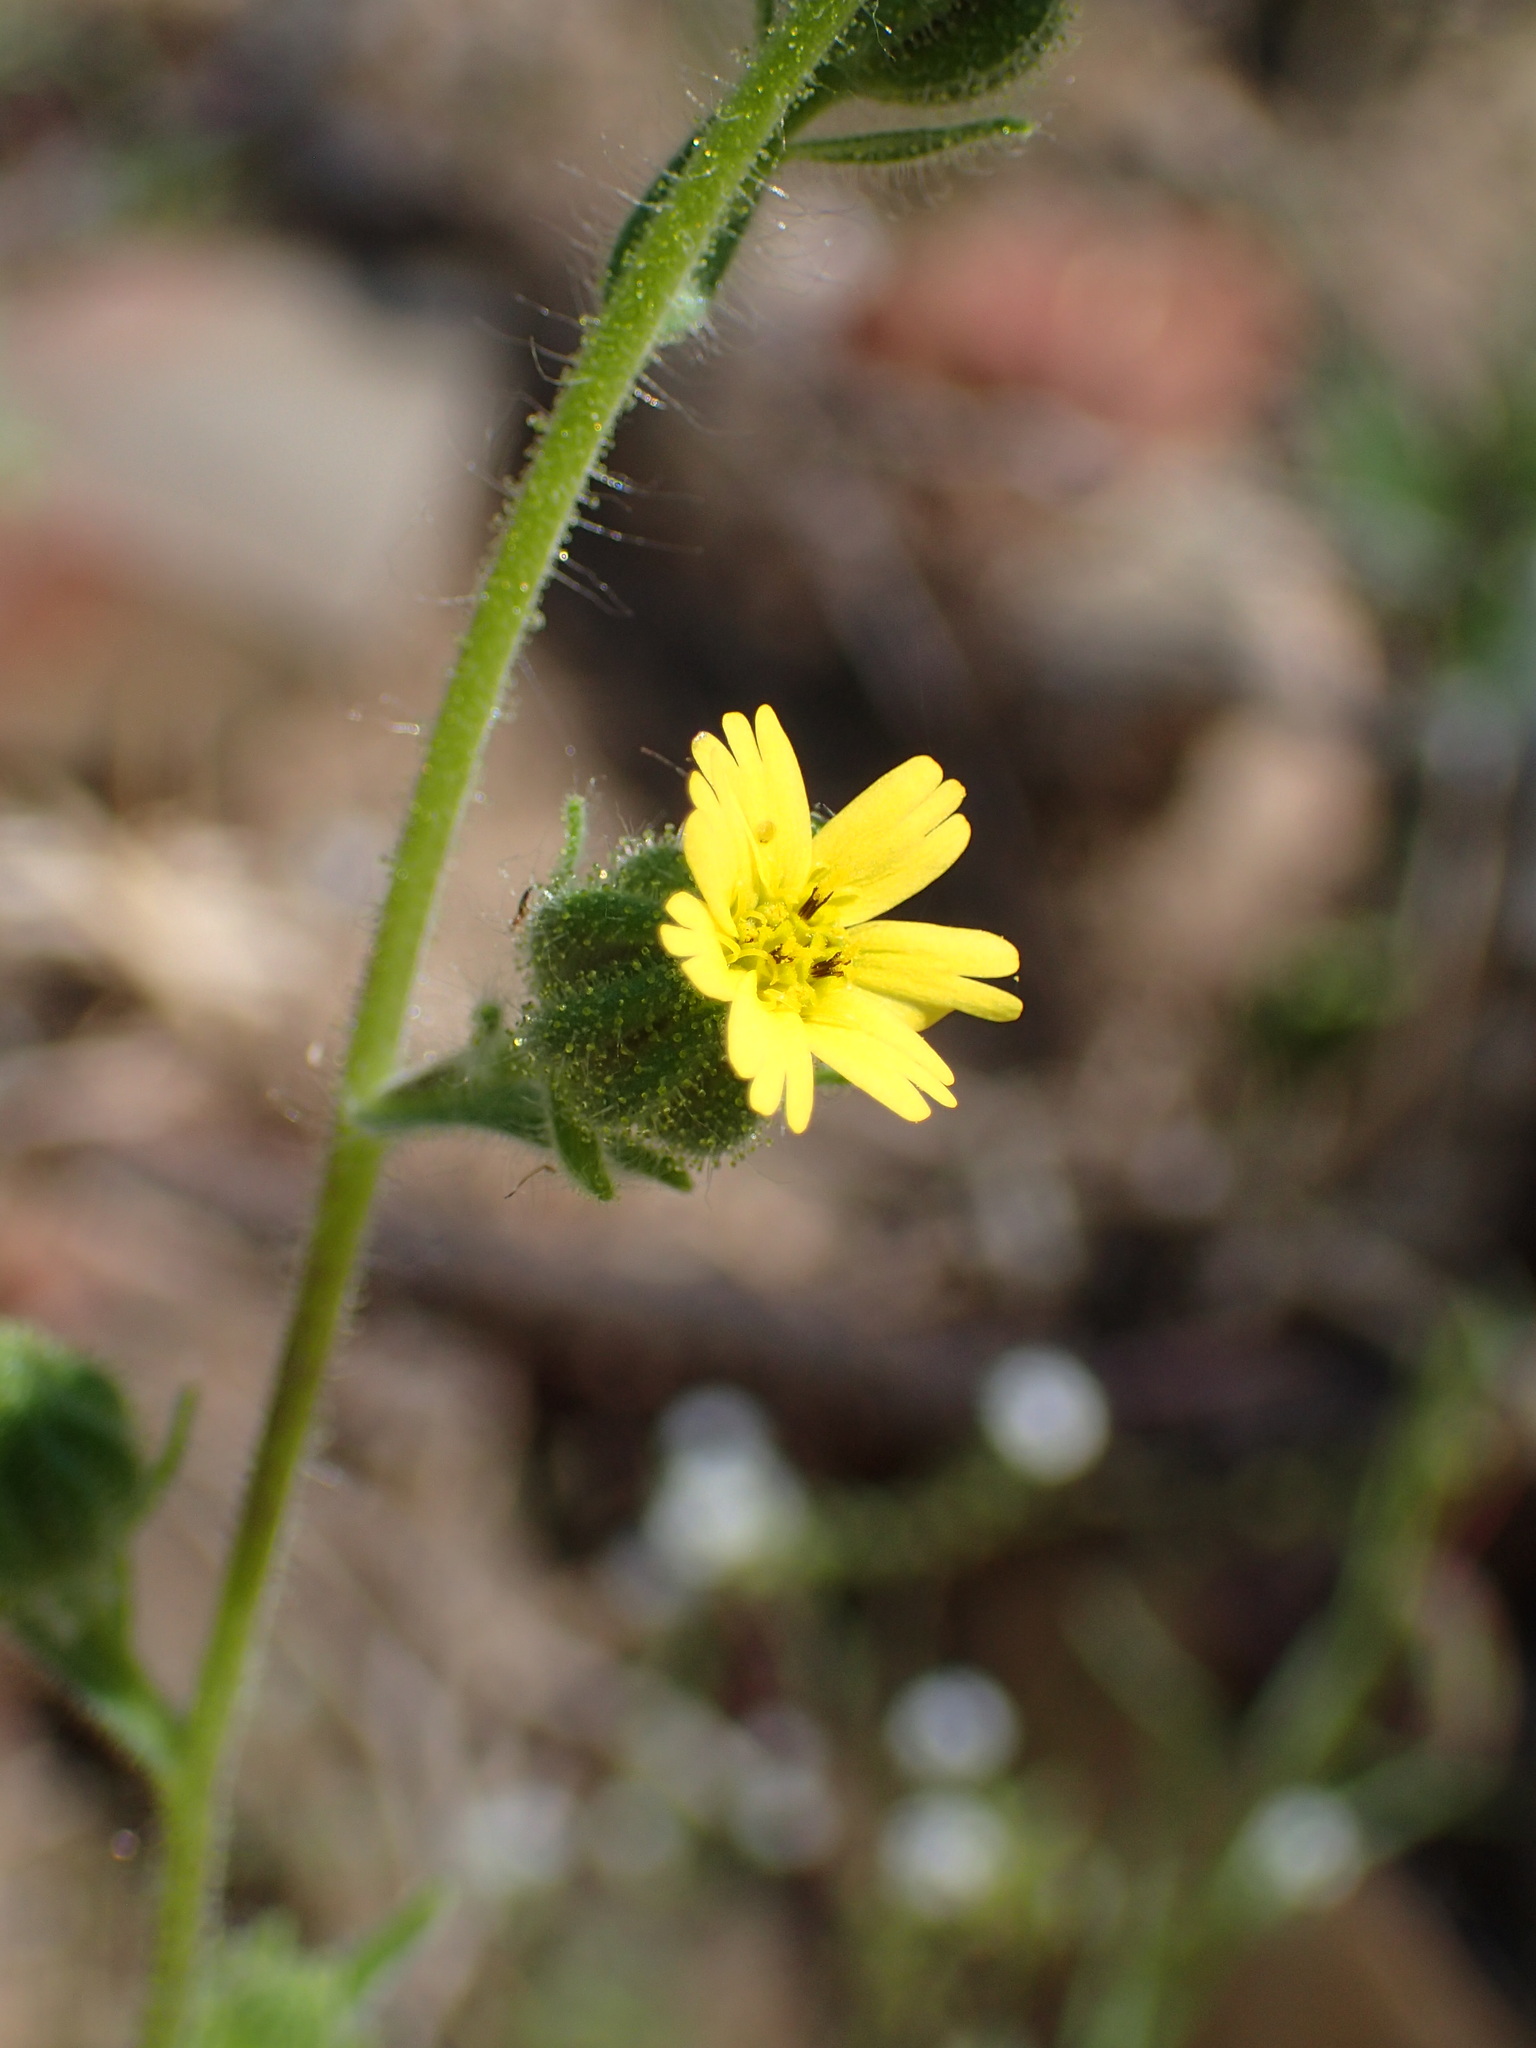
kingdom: Plantae
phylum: Tracheophyta
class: Magnoliopsida
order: Asterales
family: Asteraceae
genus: Madia
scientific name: Madia gracilis
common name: Grassy tarweed
